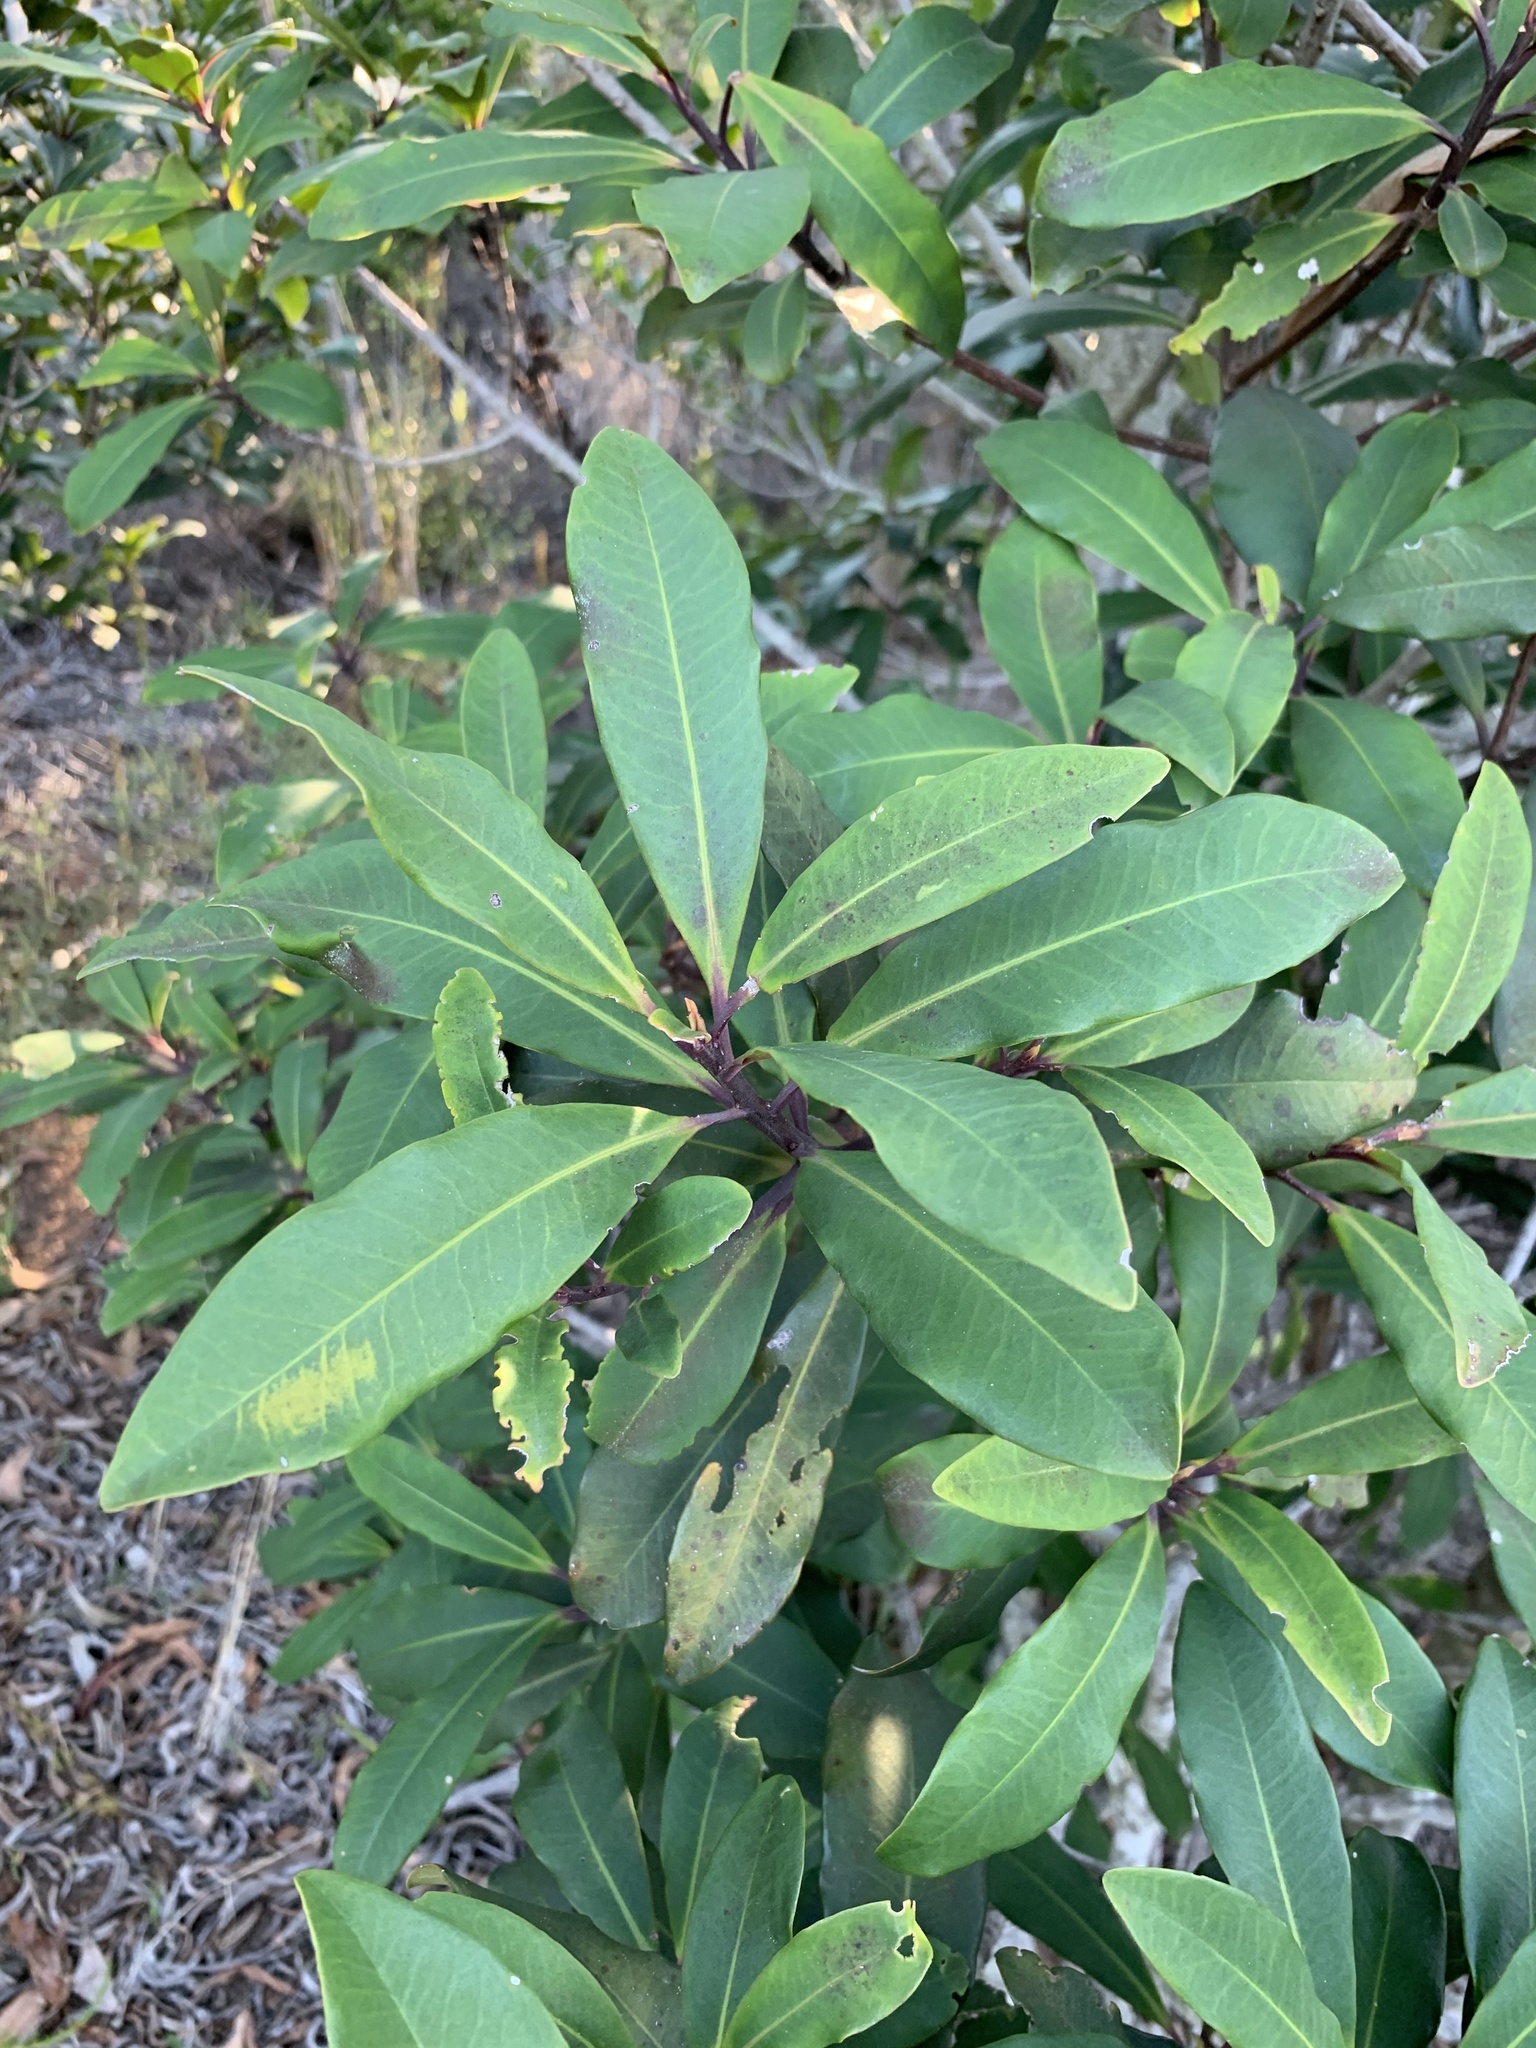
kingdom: Plantae
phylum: Tracheophyta
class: Magnoliopsida
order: Ericales
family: Primulaceae
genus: Myrsine
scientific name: Myrsine melanophloeos
